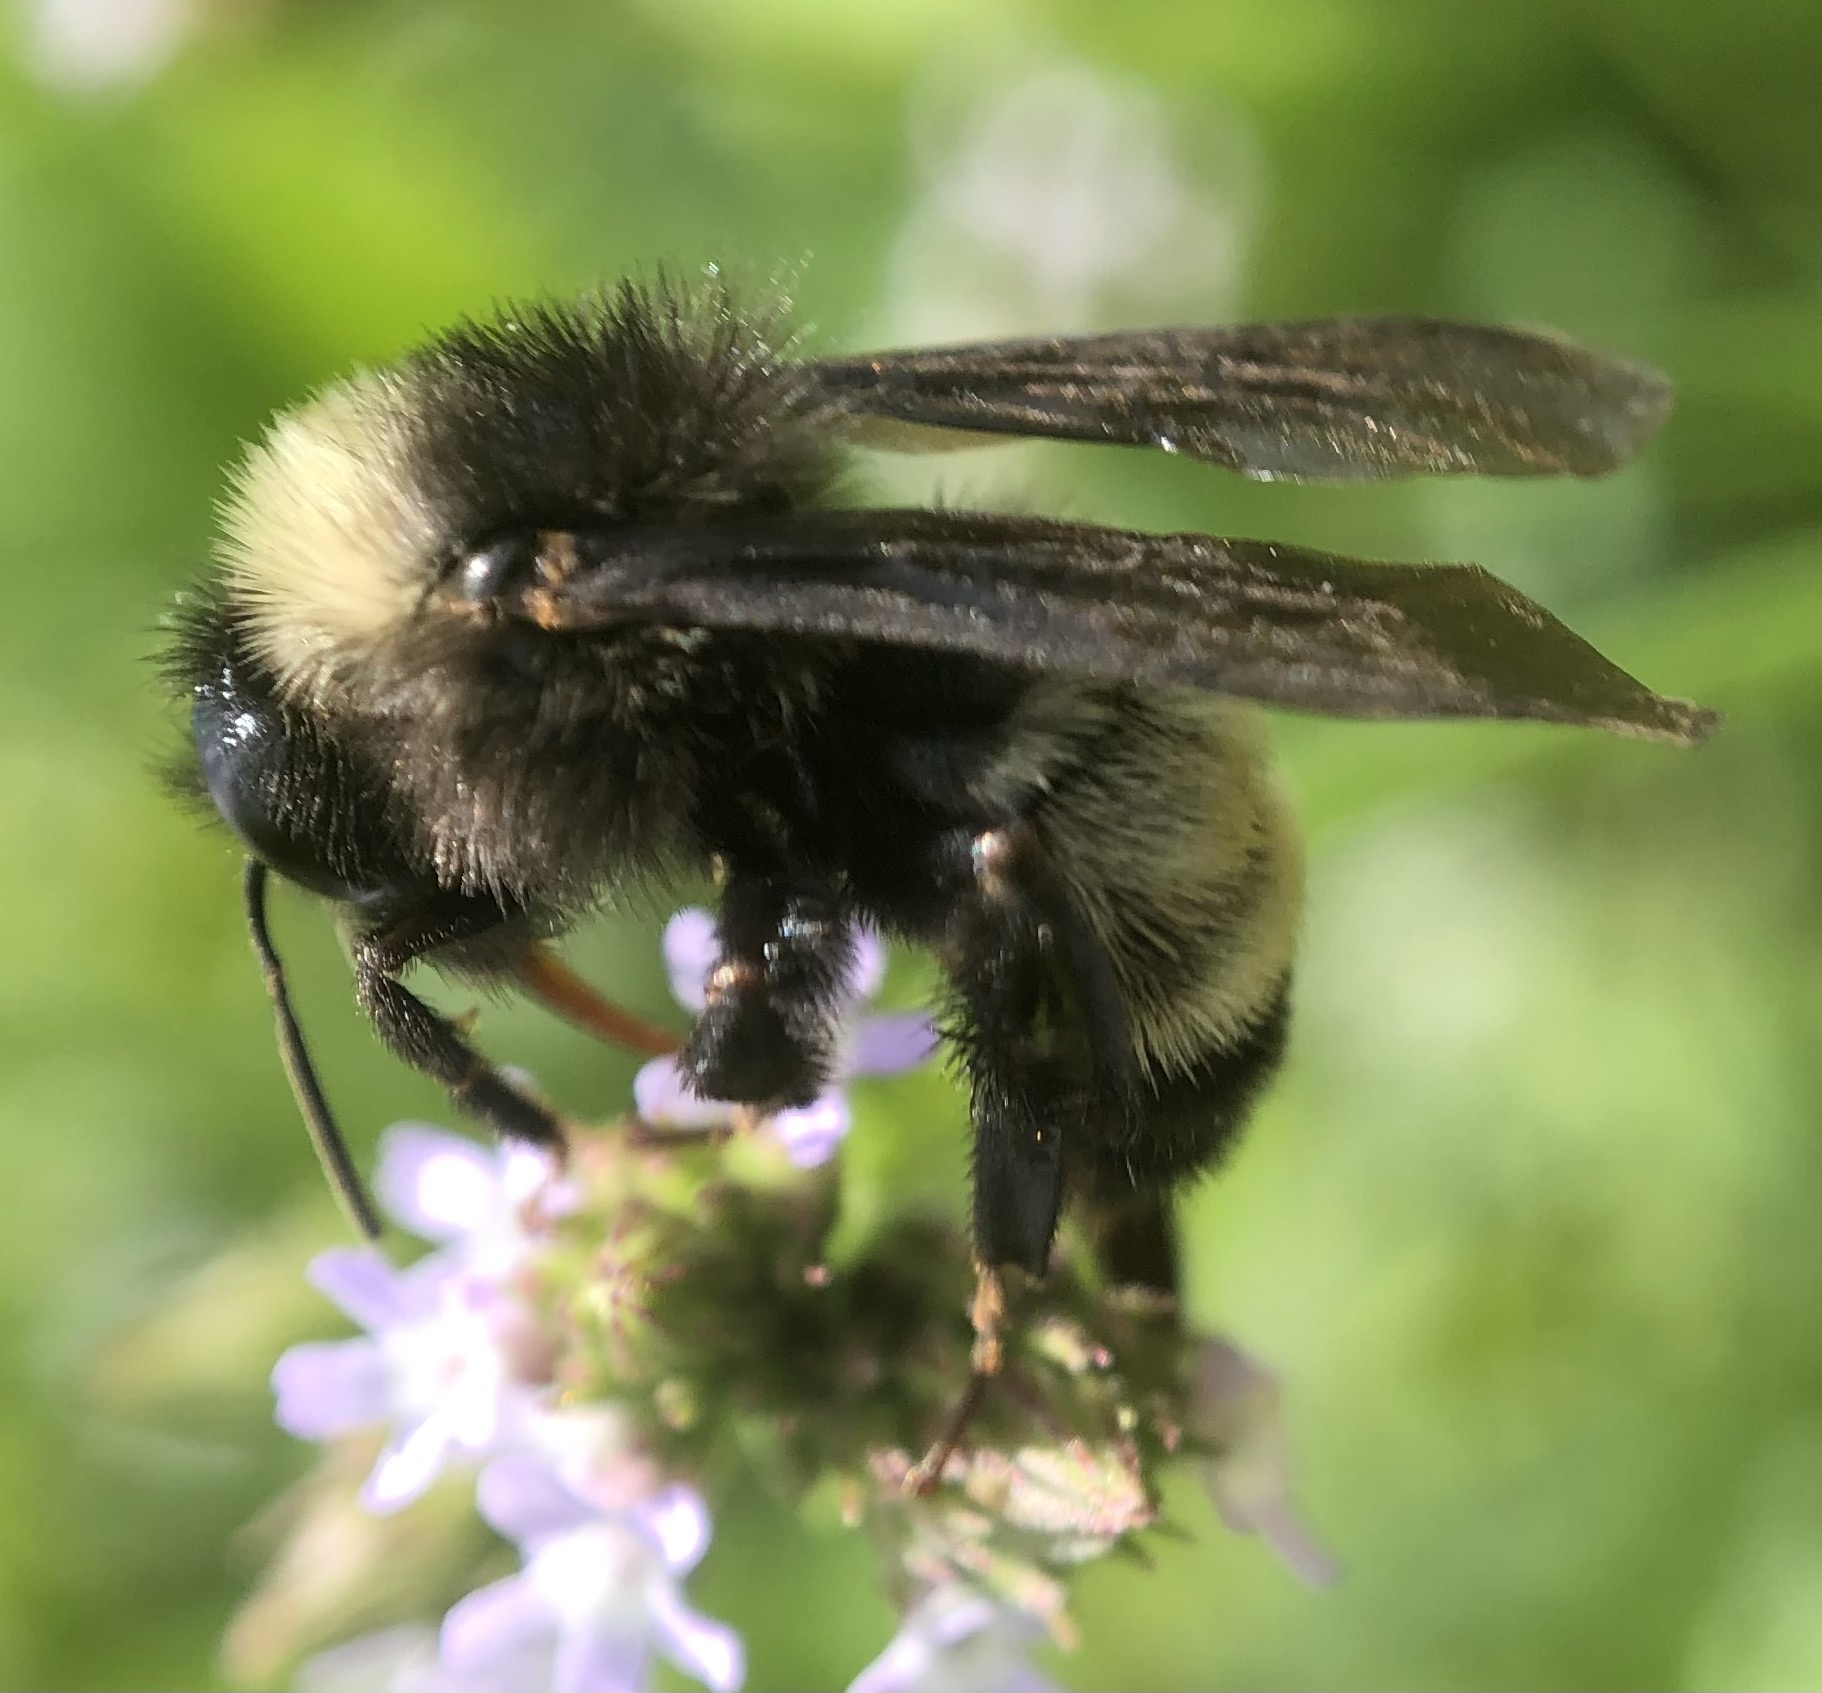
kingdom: Animalia
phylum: Arthropoda
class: Insecta
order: Hymenoptera
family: Apidae
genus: Bombus
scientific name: Bombus pensylvanicus
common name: Bumble bee
